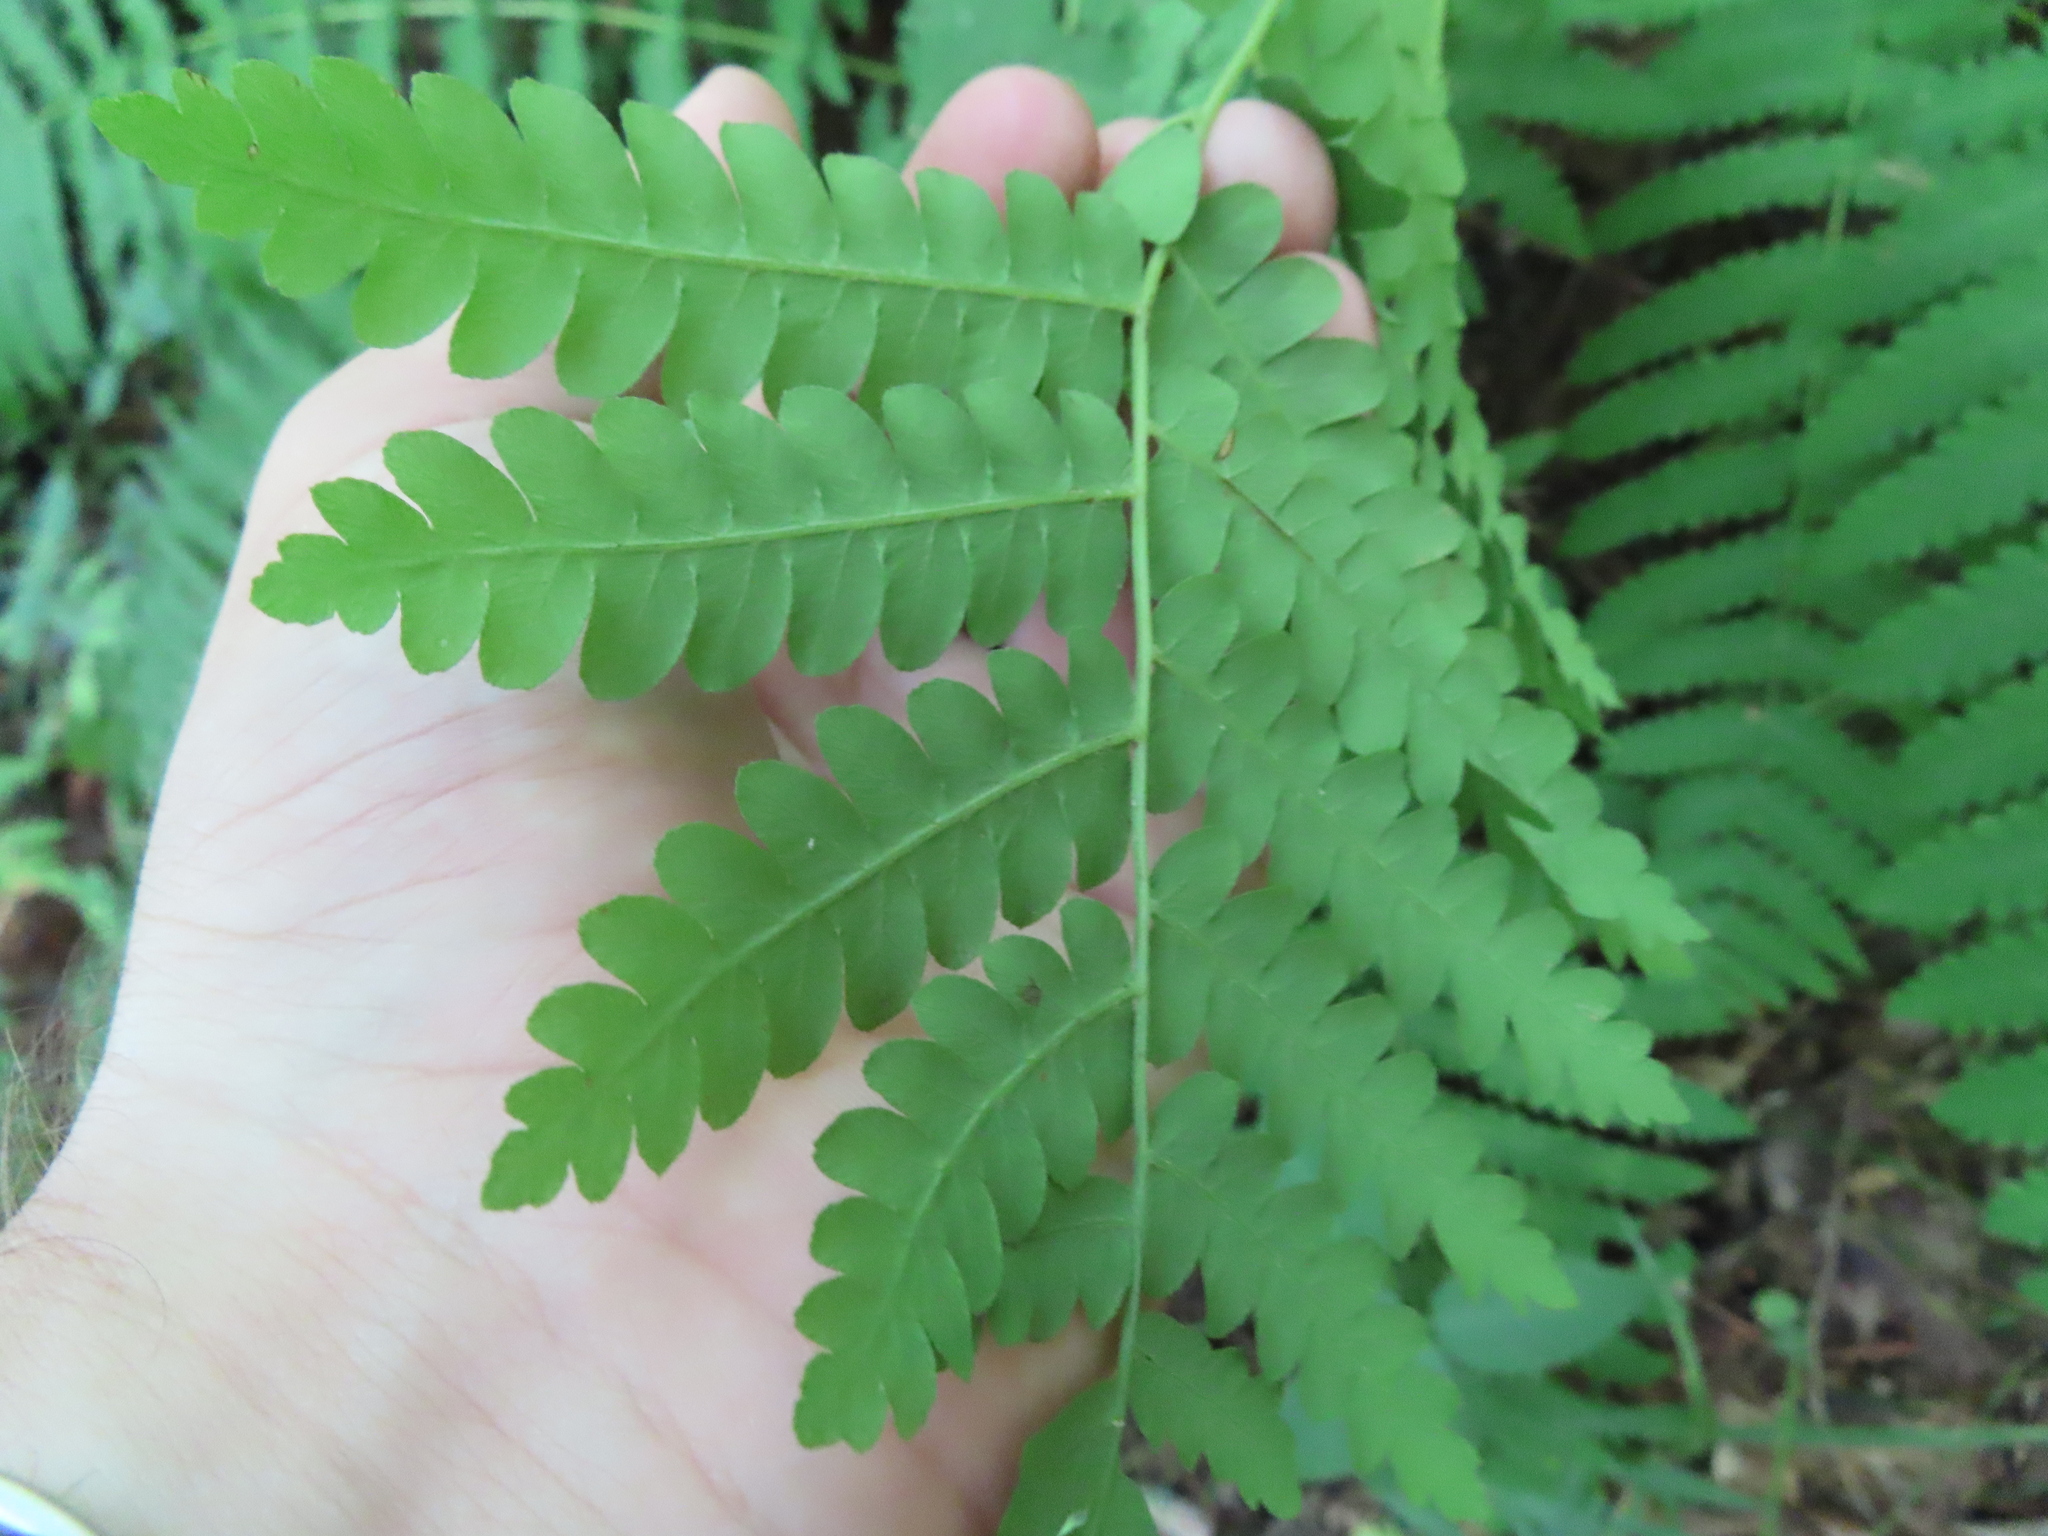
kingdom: Plantae
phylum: Tracheophyta
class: Polypodiopsida
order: Osmundales
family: Osmundaceae
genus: Claytosmunda
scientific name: Claytosmunda claytoniana
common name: Clayton's fern
